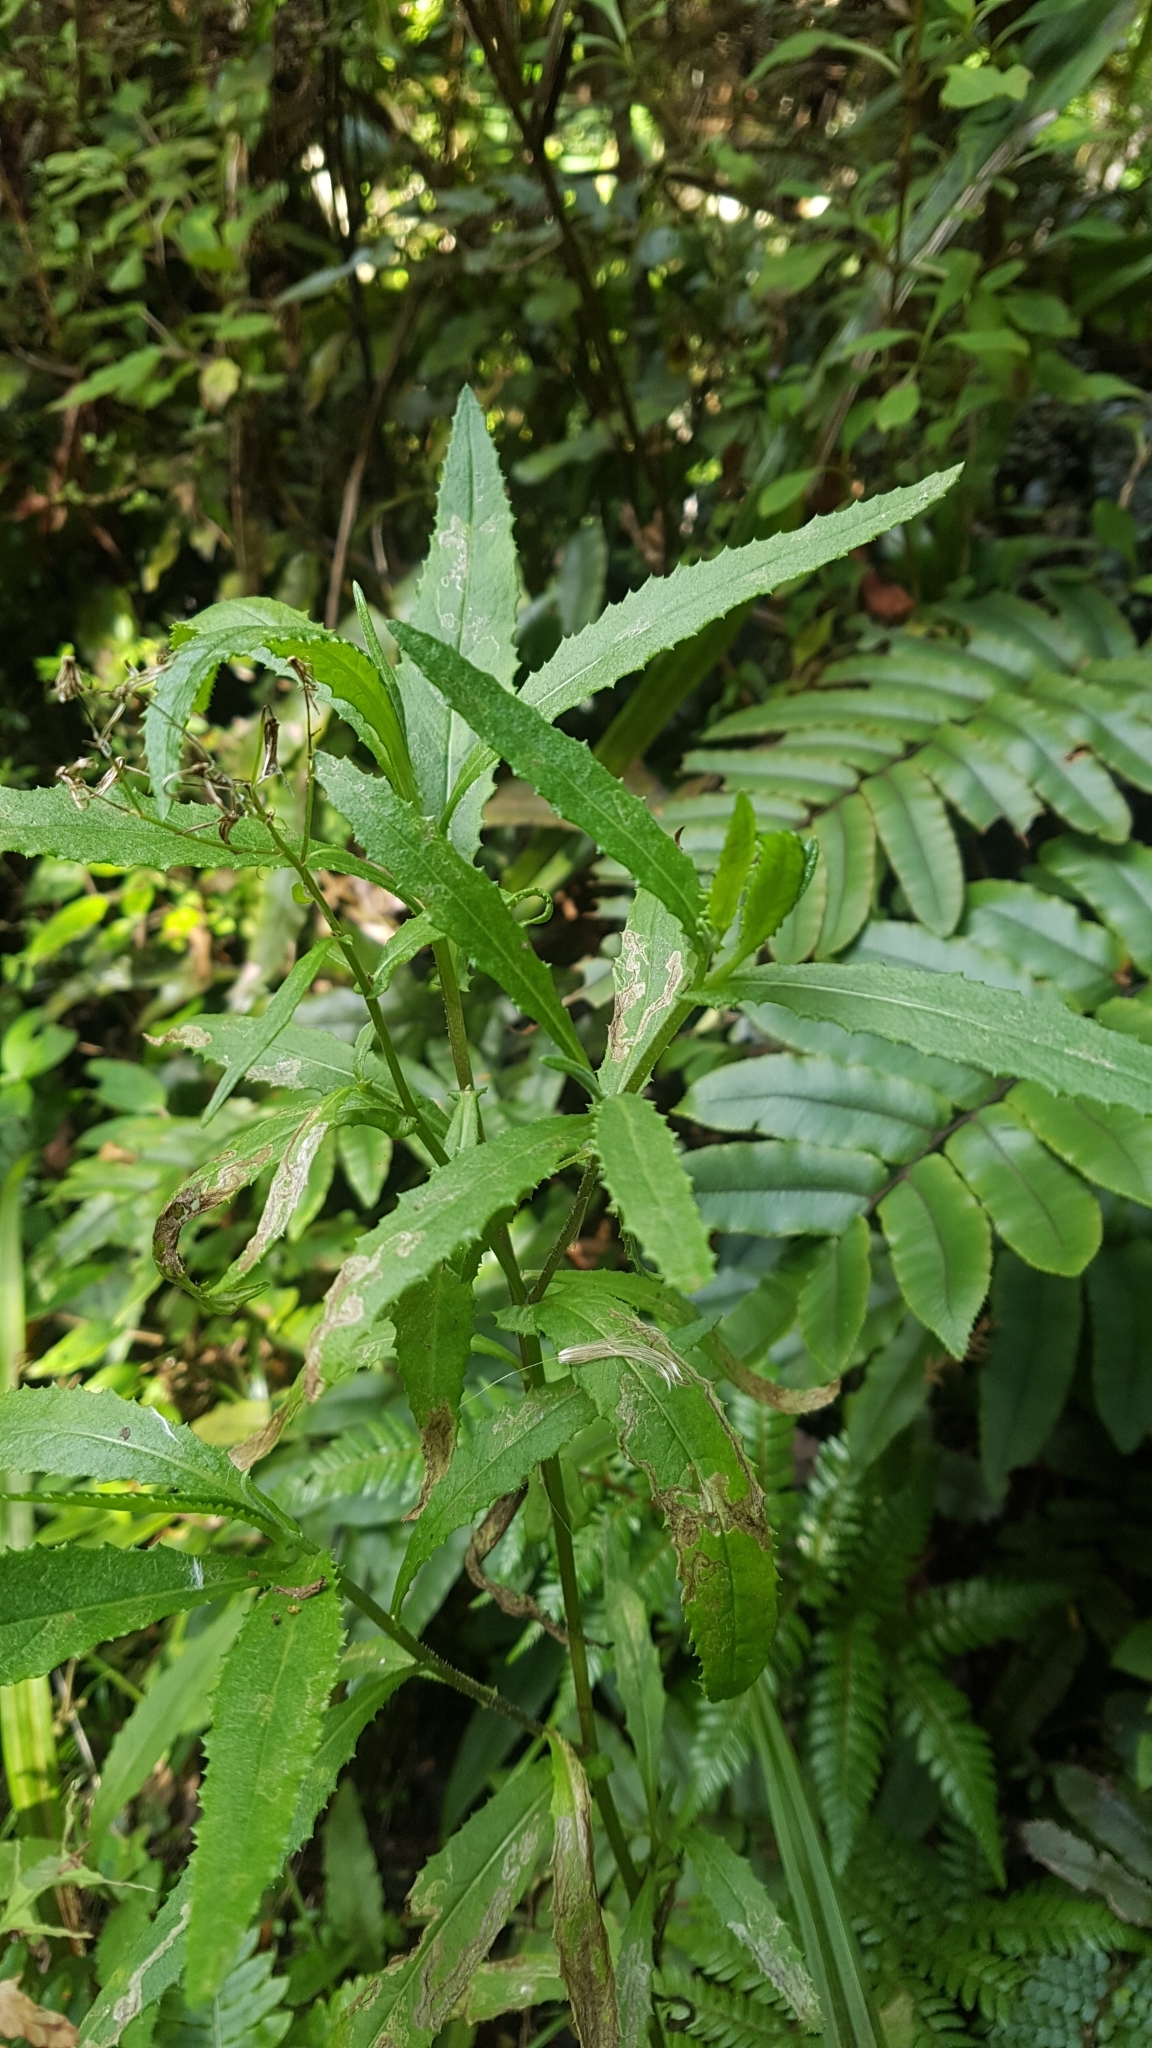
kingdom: Plantae
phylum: Tracheophyta
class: Magnoliopsida
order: Asterales
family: Asteraceae
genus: Senecio
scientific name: Senecio minimus
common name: Toothed fireweed
